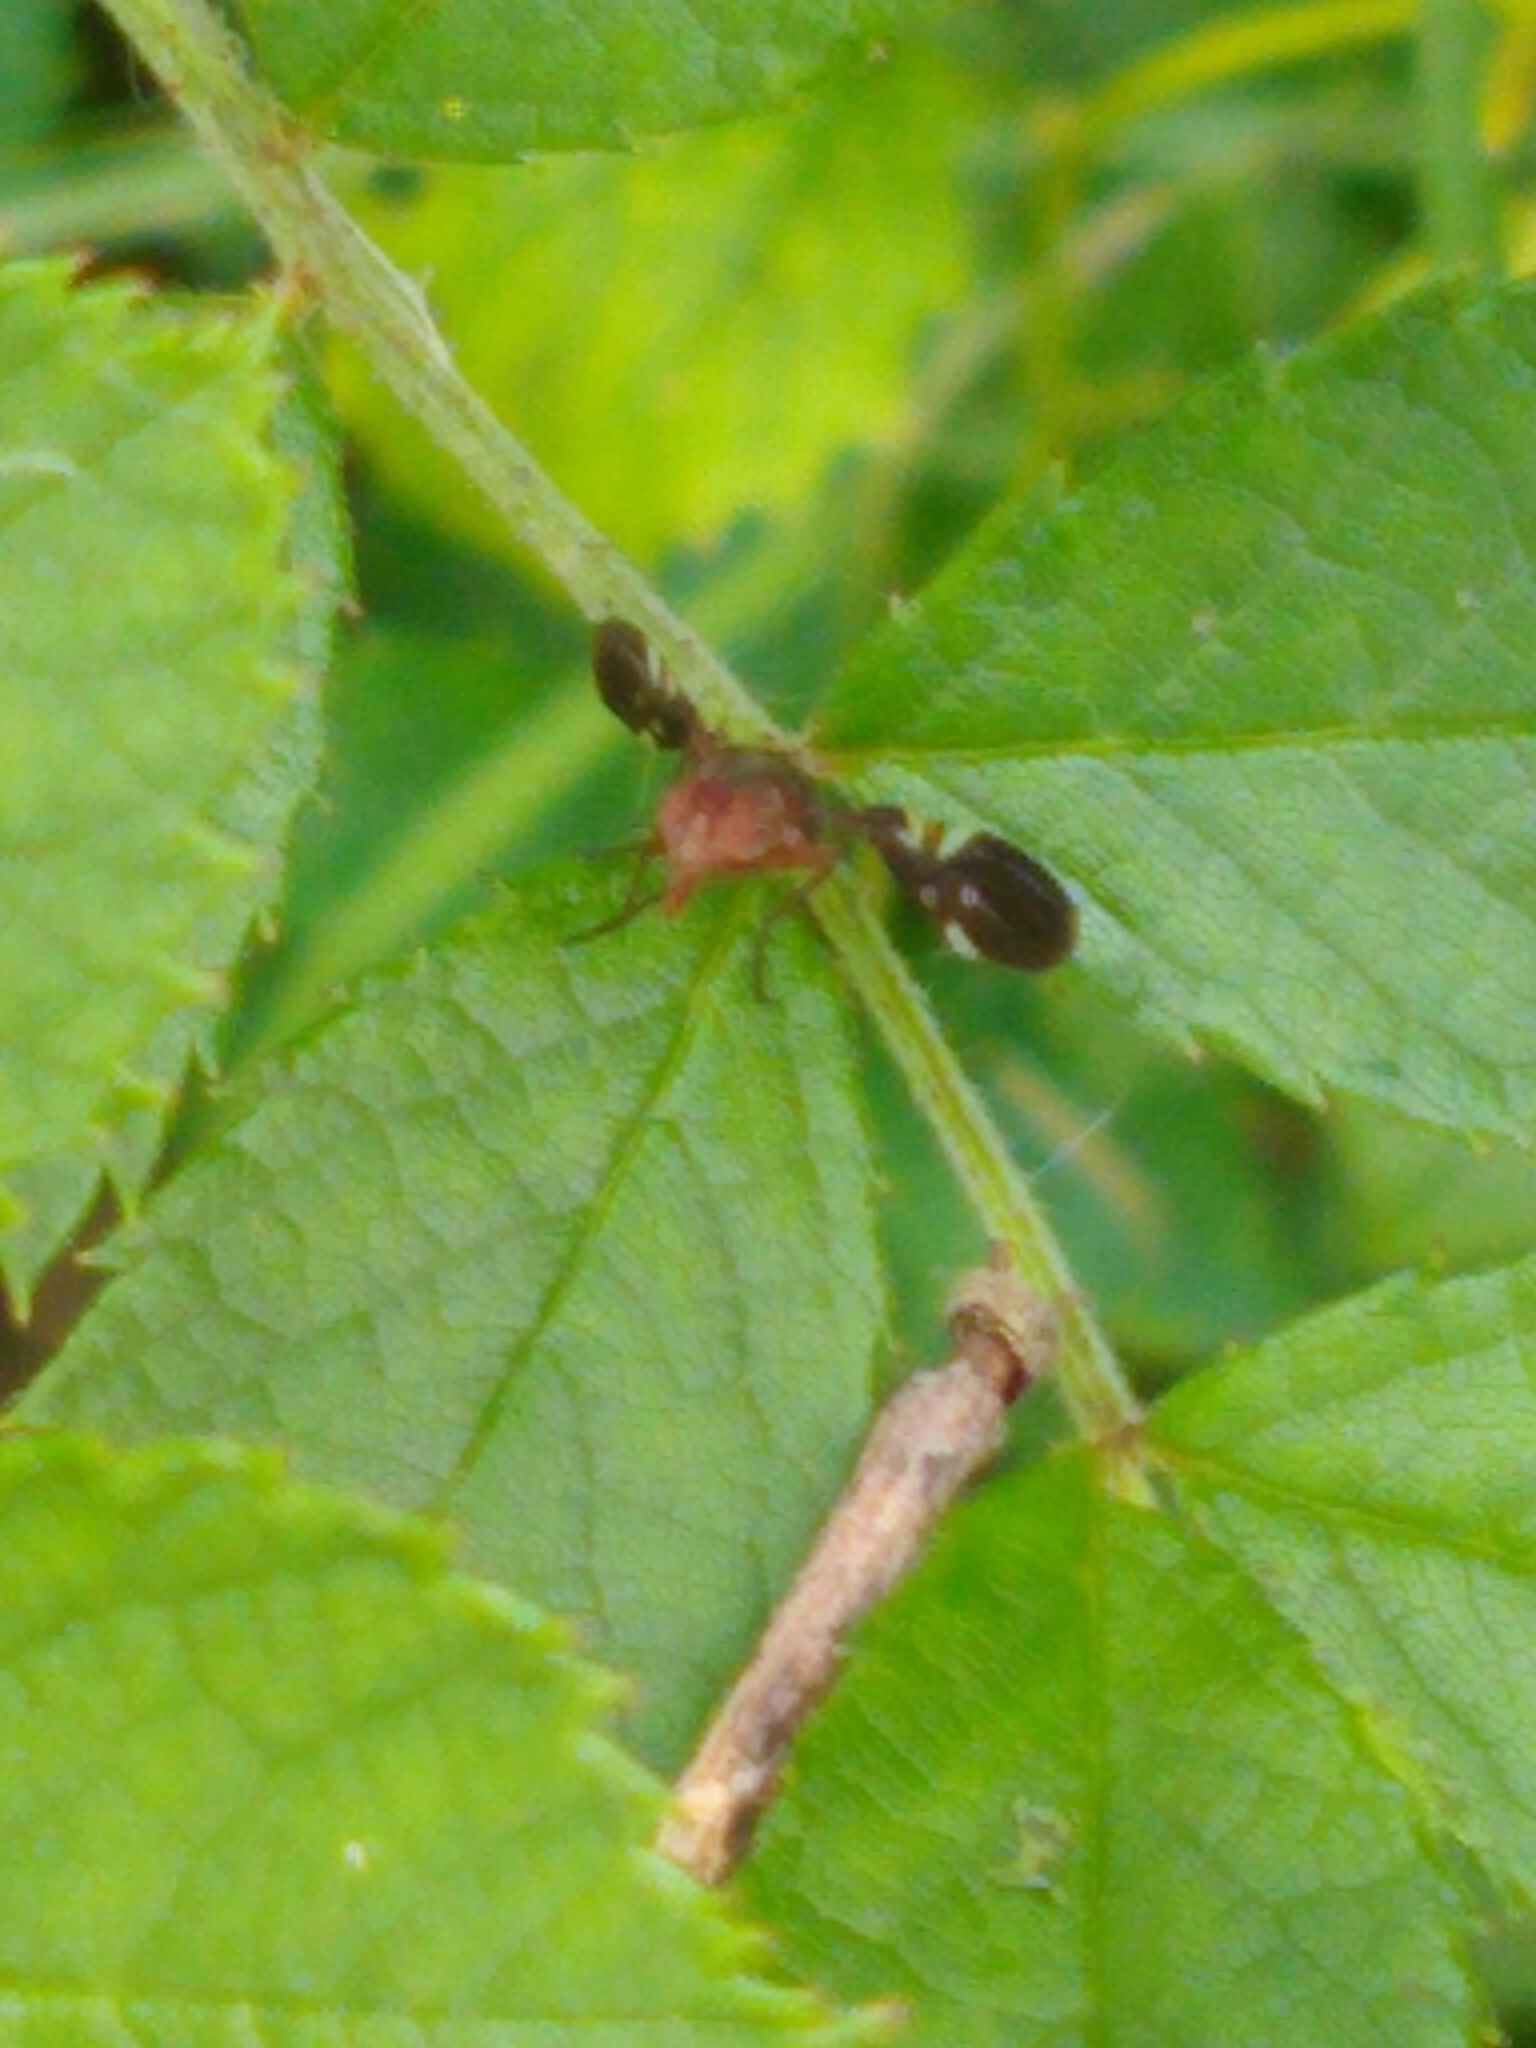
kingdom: Animalia
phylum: Arthropoda
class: Insecta
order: Diptera
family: Ulidiidae
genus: Delphinia
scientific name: Delphinia picta
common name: Common picture-winged fly
